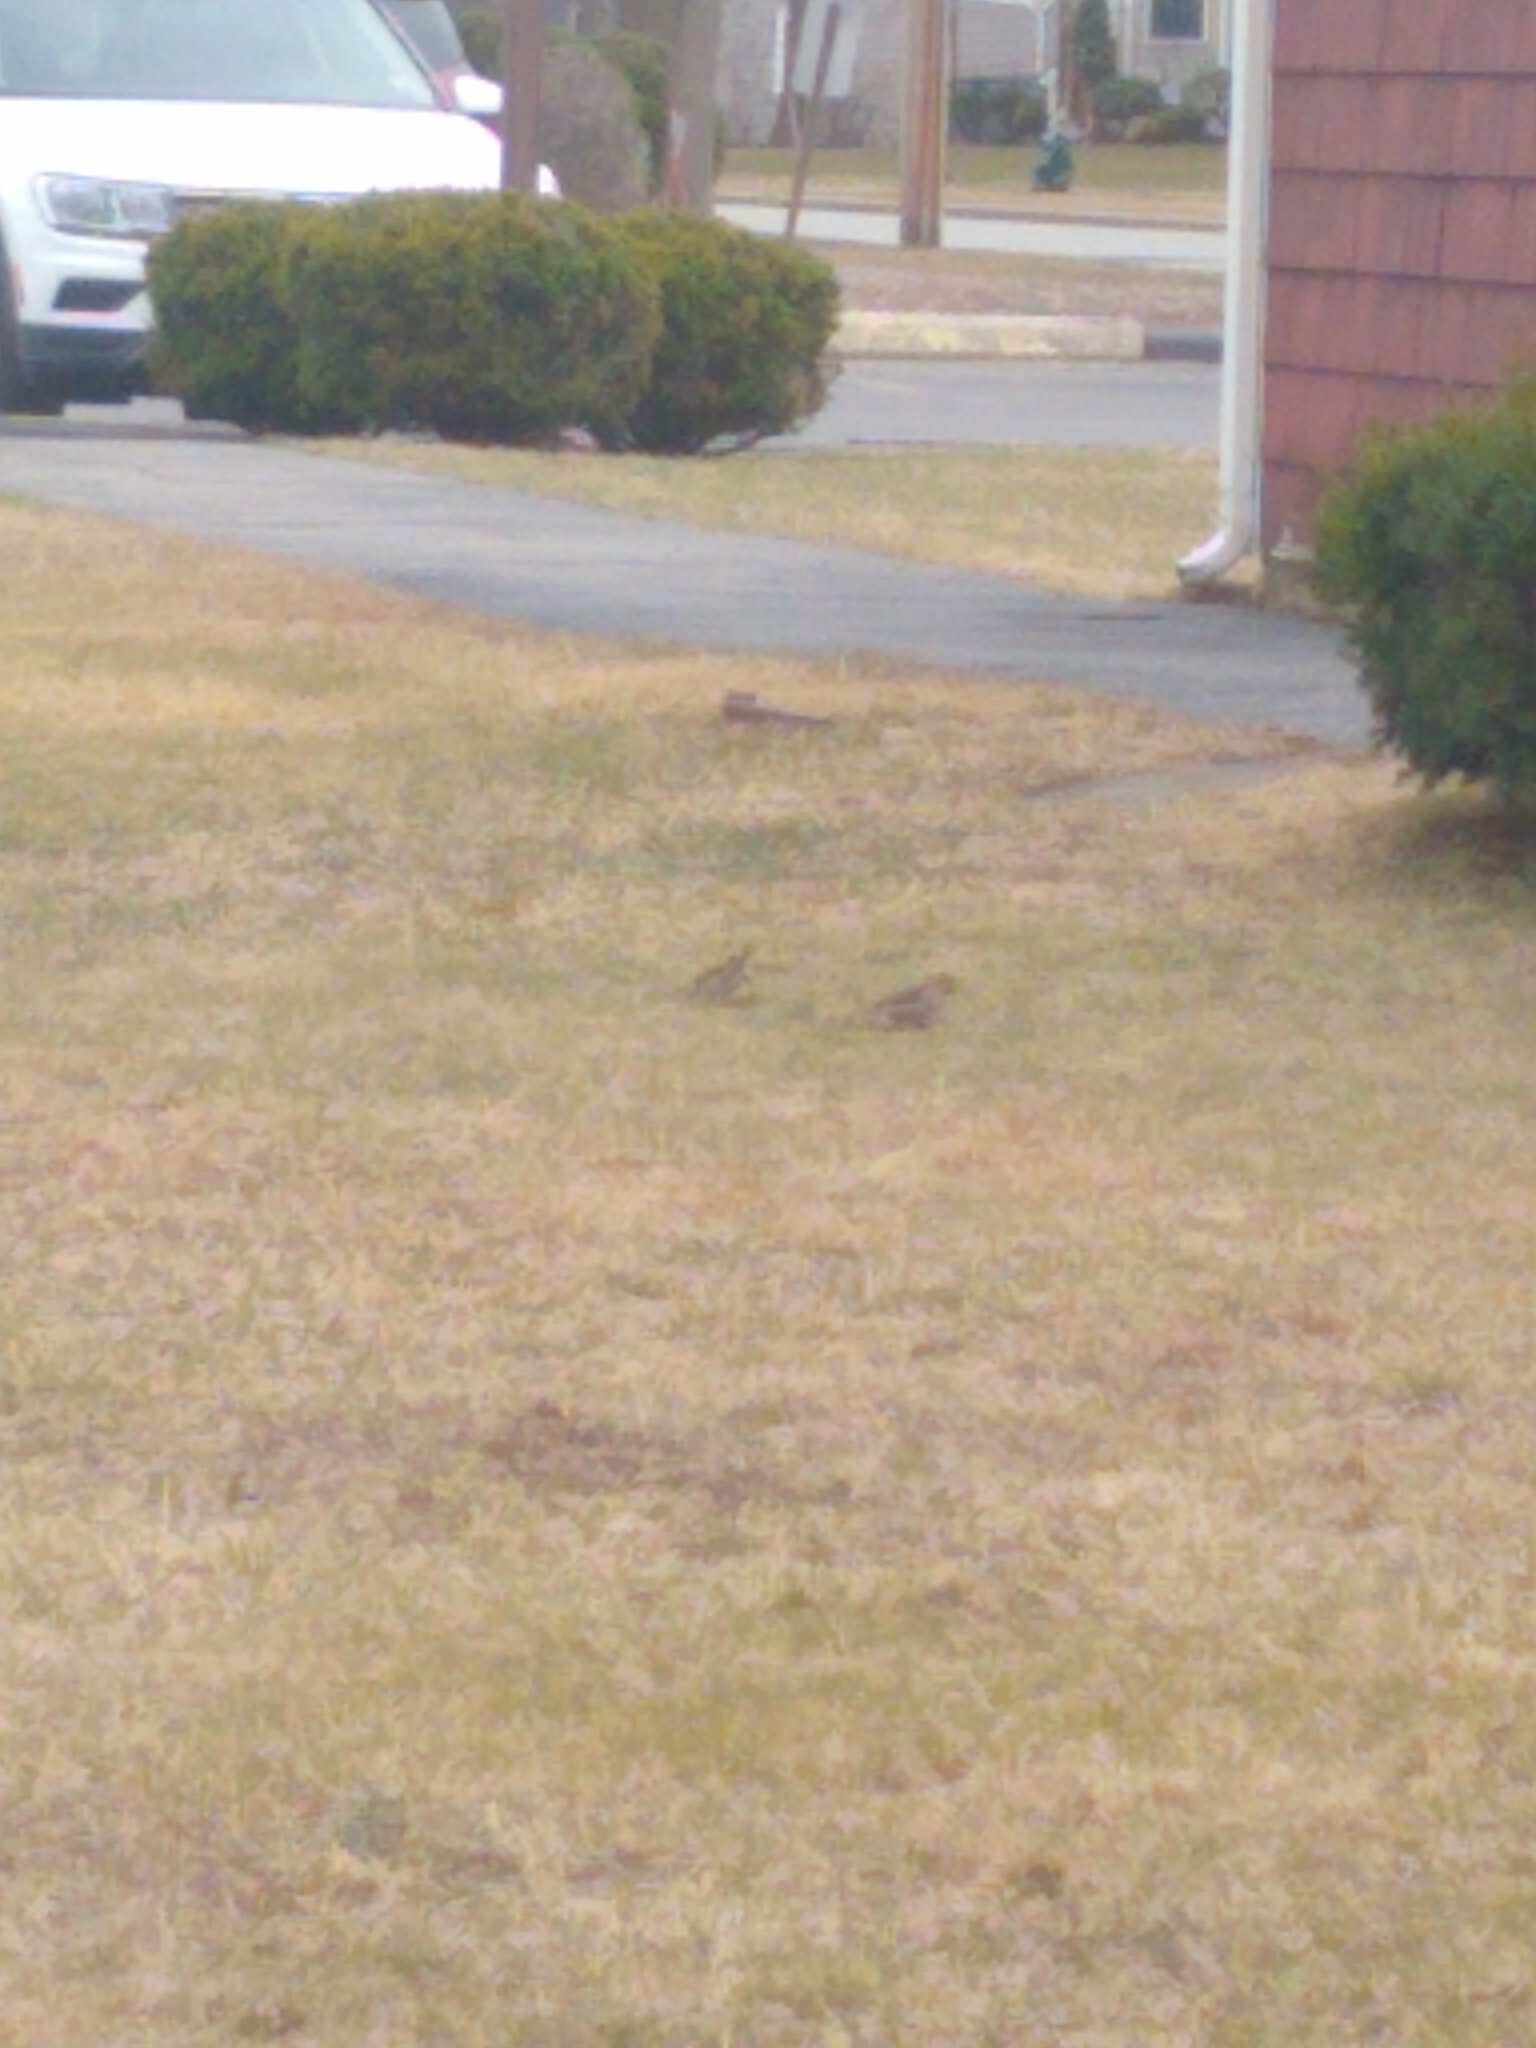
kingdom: Animalia
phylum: Chordata
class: Aves
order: Passeriformes
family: Passeridae
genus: Passer
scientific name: Passer domesticus
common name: House sparrow
